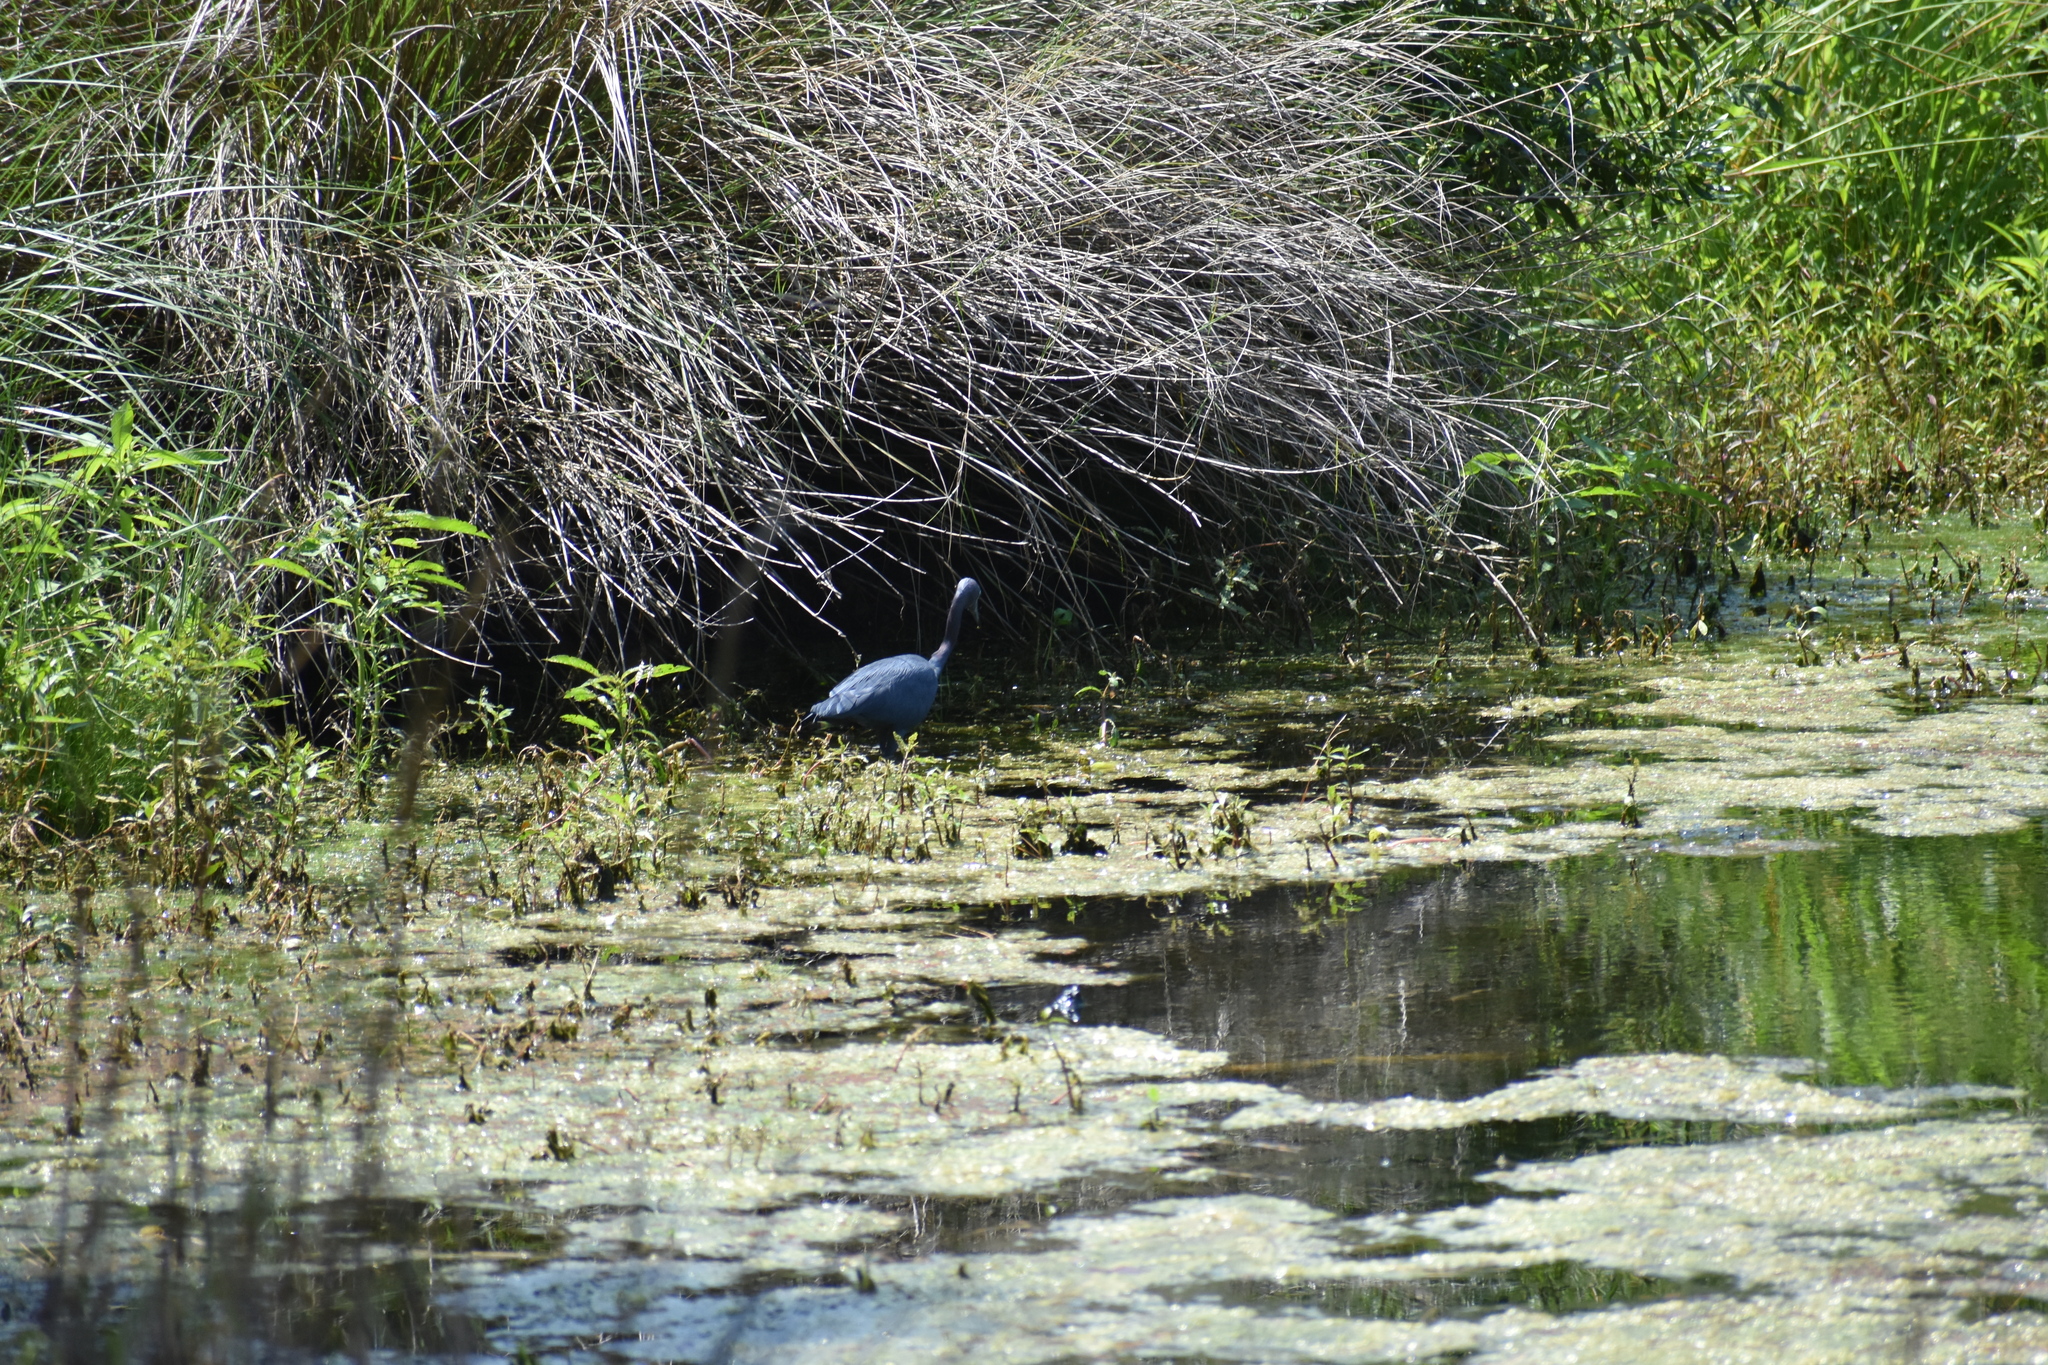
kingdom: Animalia
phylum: Chordata
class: Aves
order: Pelecaniformes
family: Ardeidae
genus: Egretta
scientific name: Egretta caerulea
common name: Little blue heron
